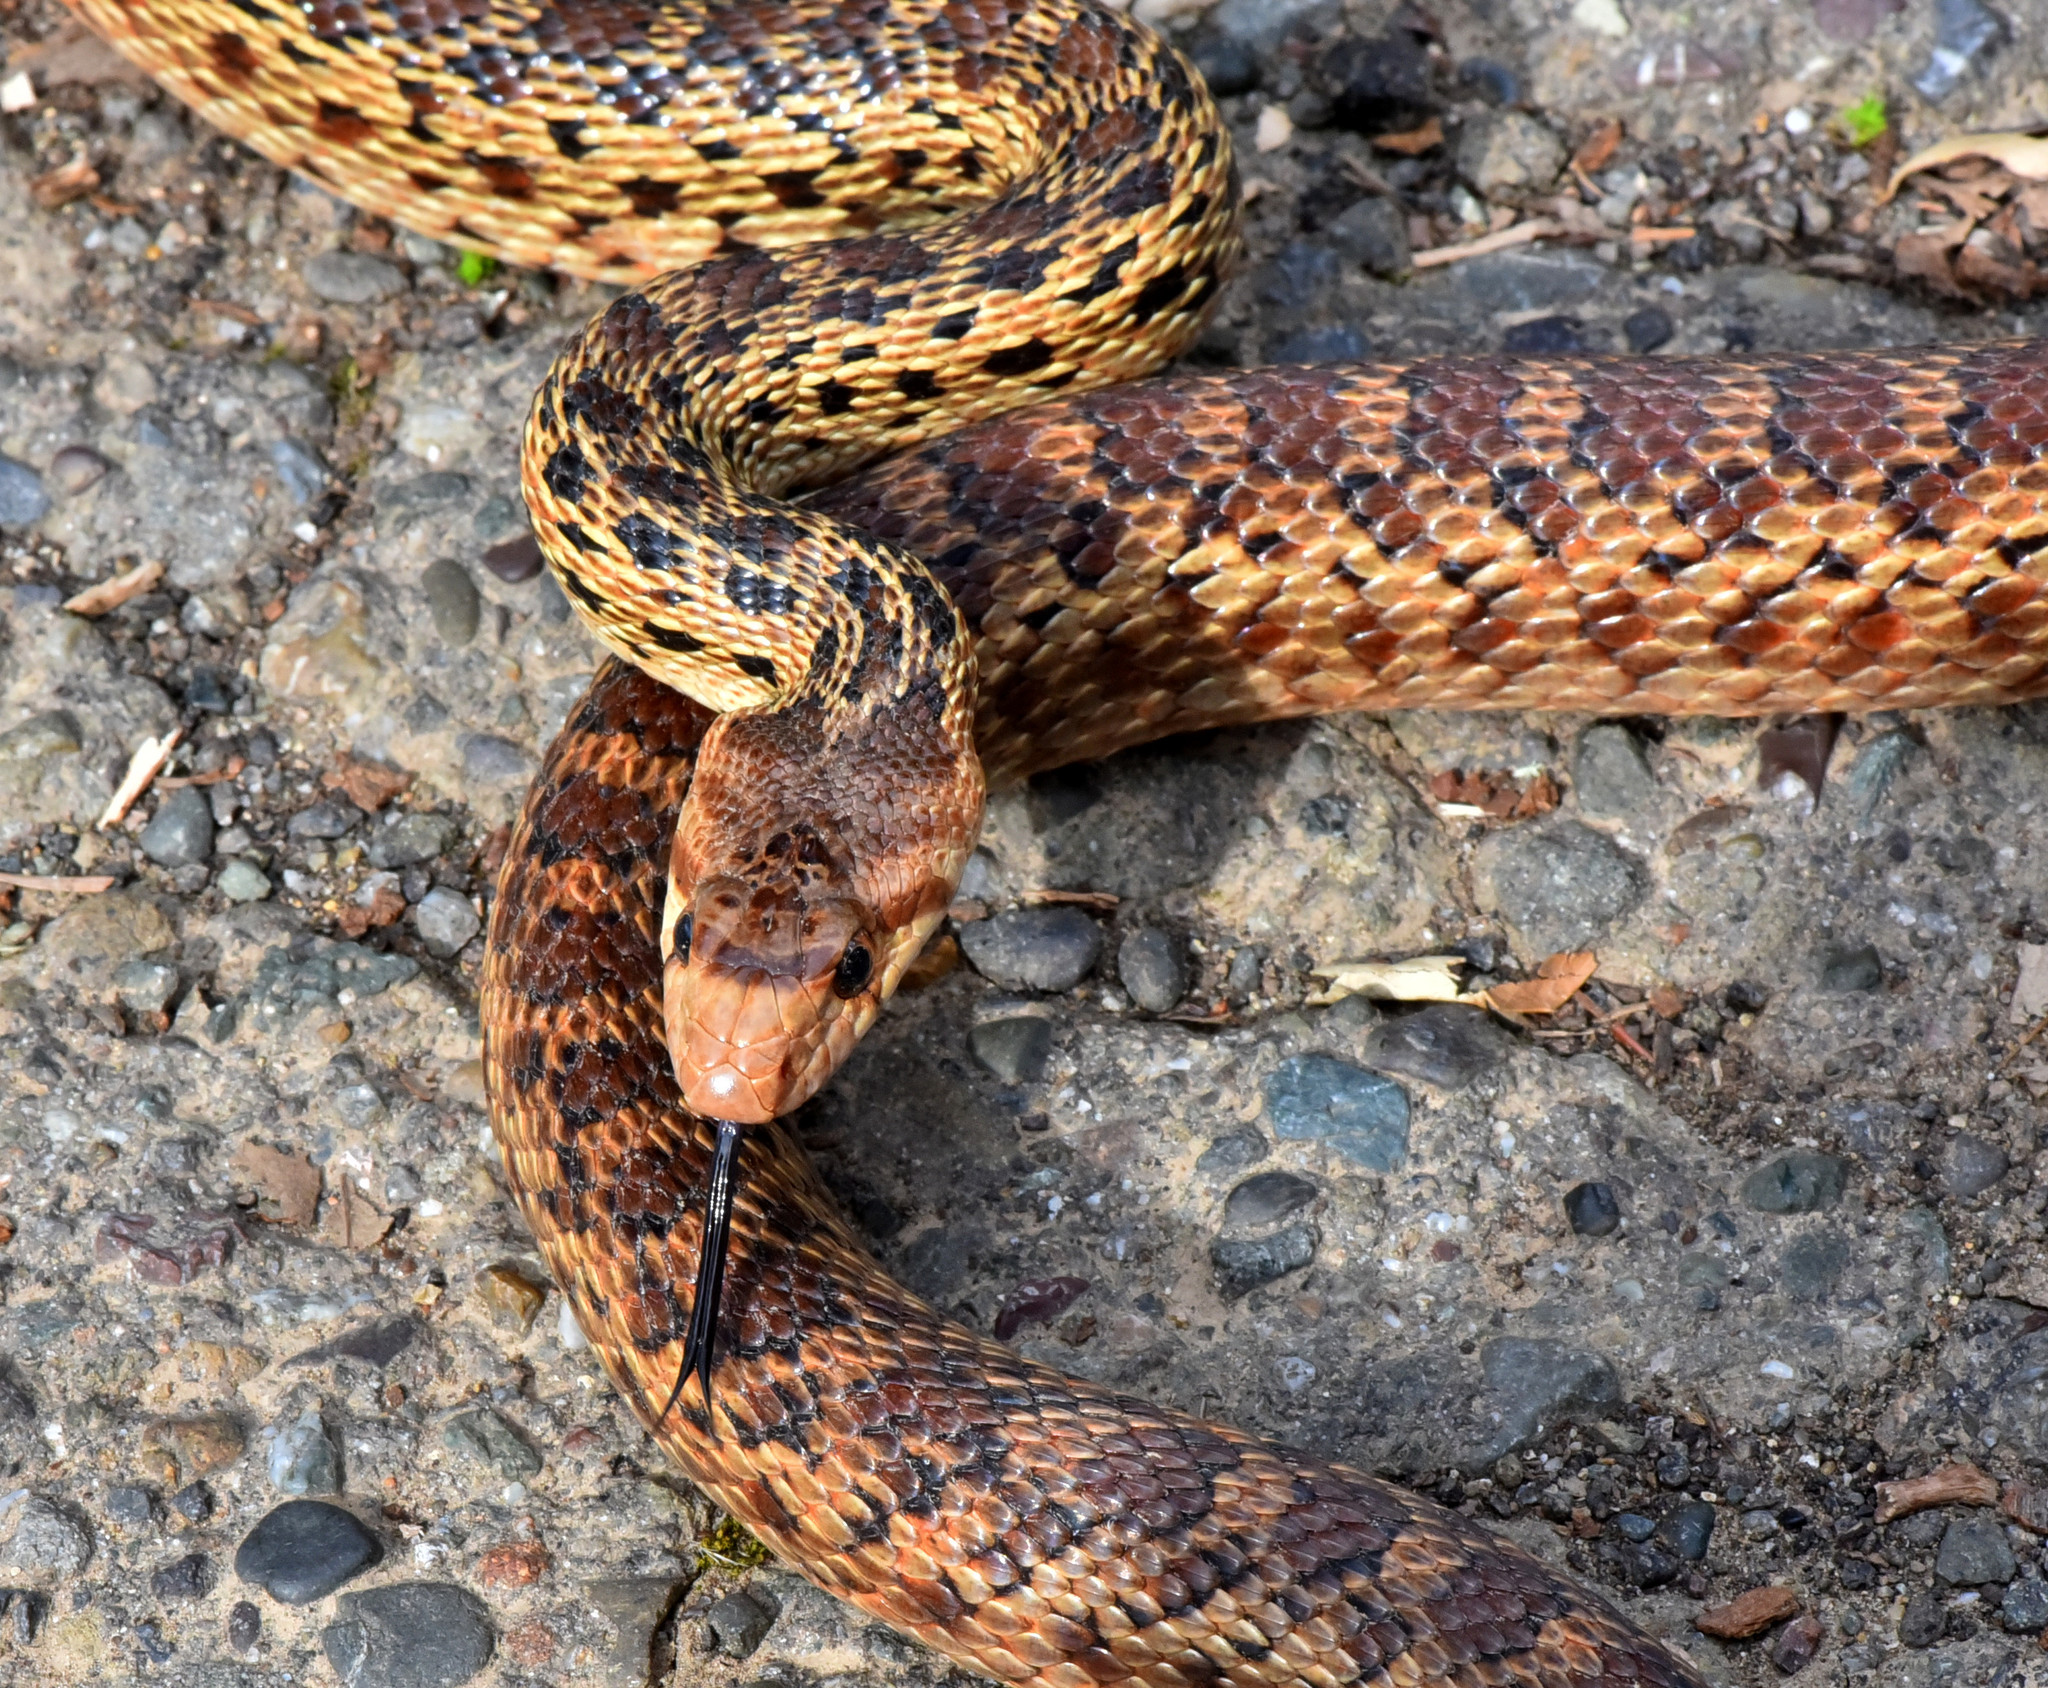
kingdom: Animalia
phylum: Chordata
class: Squamata
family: Colubridae
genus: Pituophis
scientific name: Pituophis catenifer
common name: Gopher snake
